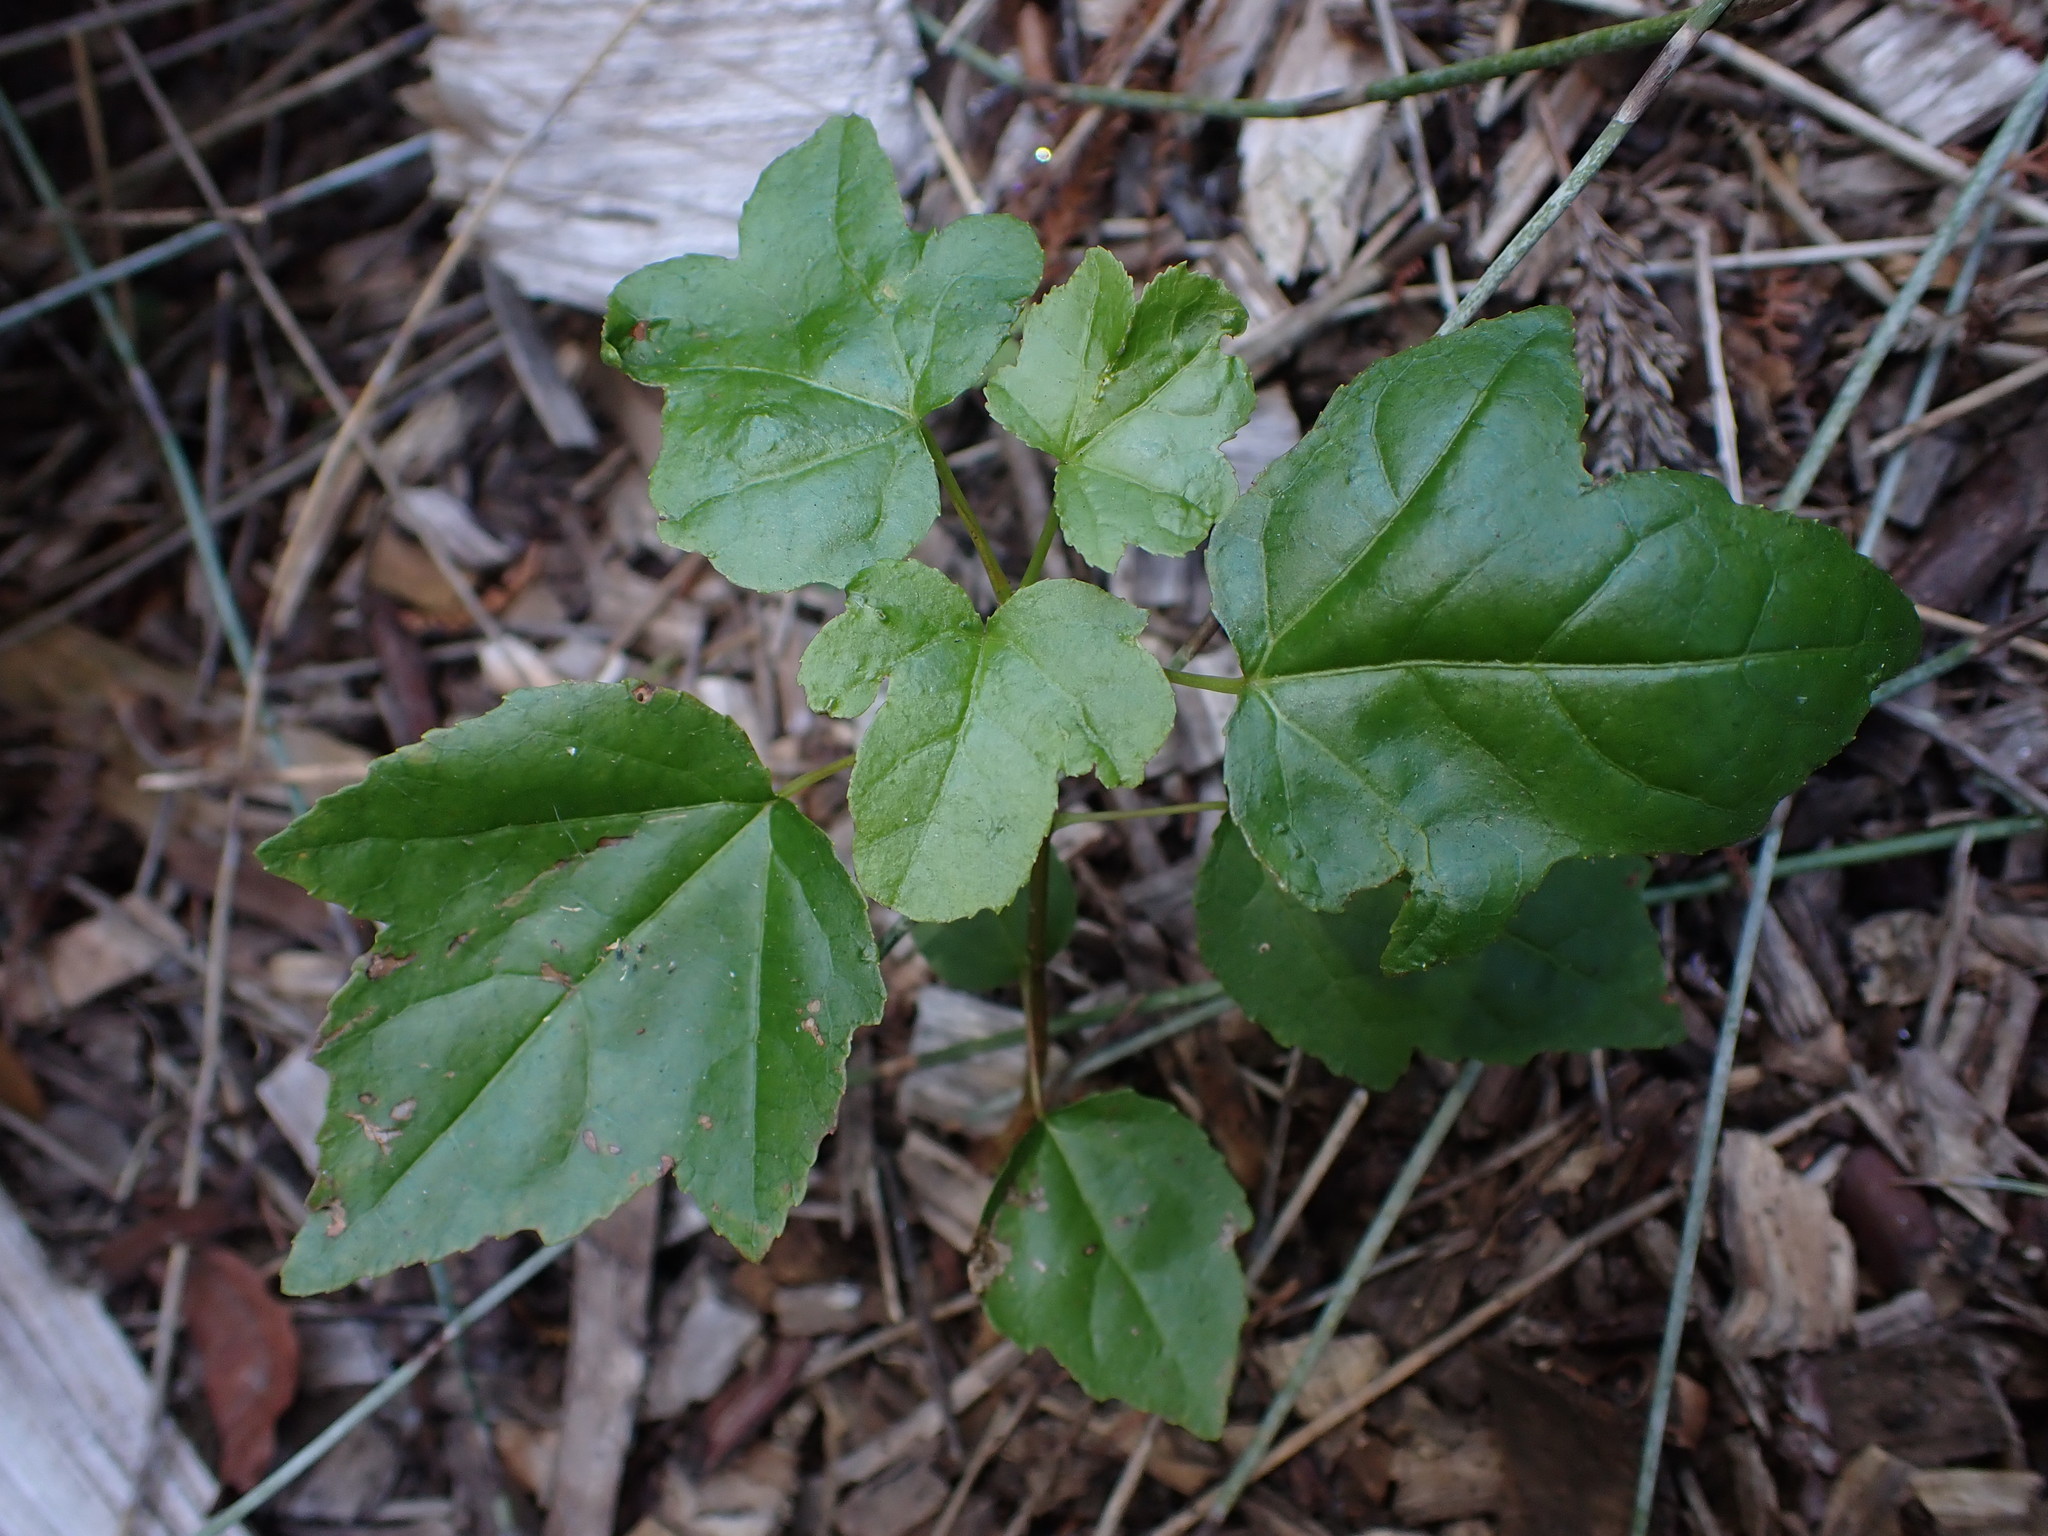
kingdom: Plantae
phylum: Tracheophyta
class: Magnoliopsida
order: Vitales
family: Vitaceae
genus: Parthenocissus
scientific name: Parthenocissus tricuspidata
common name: Boston ivy
